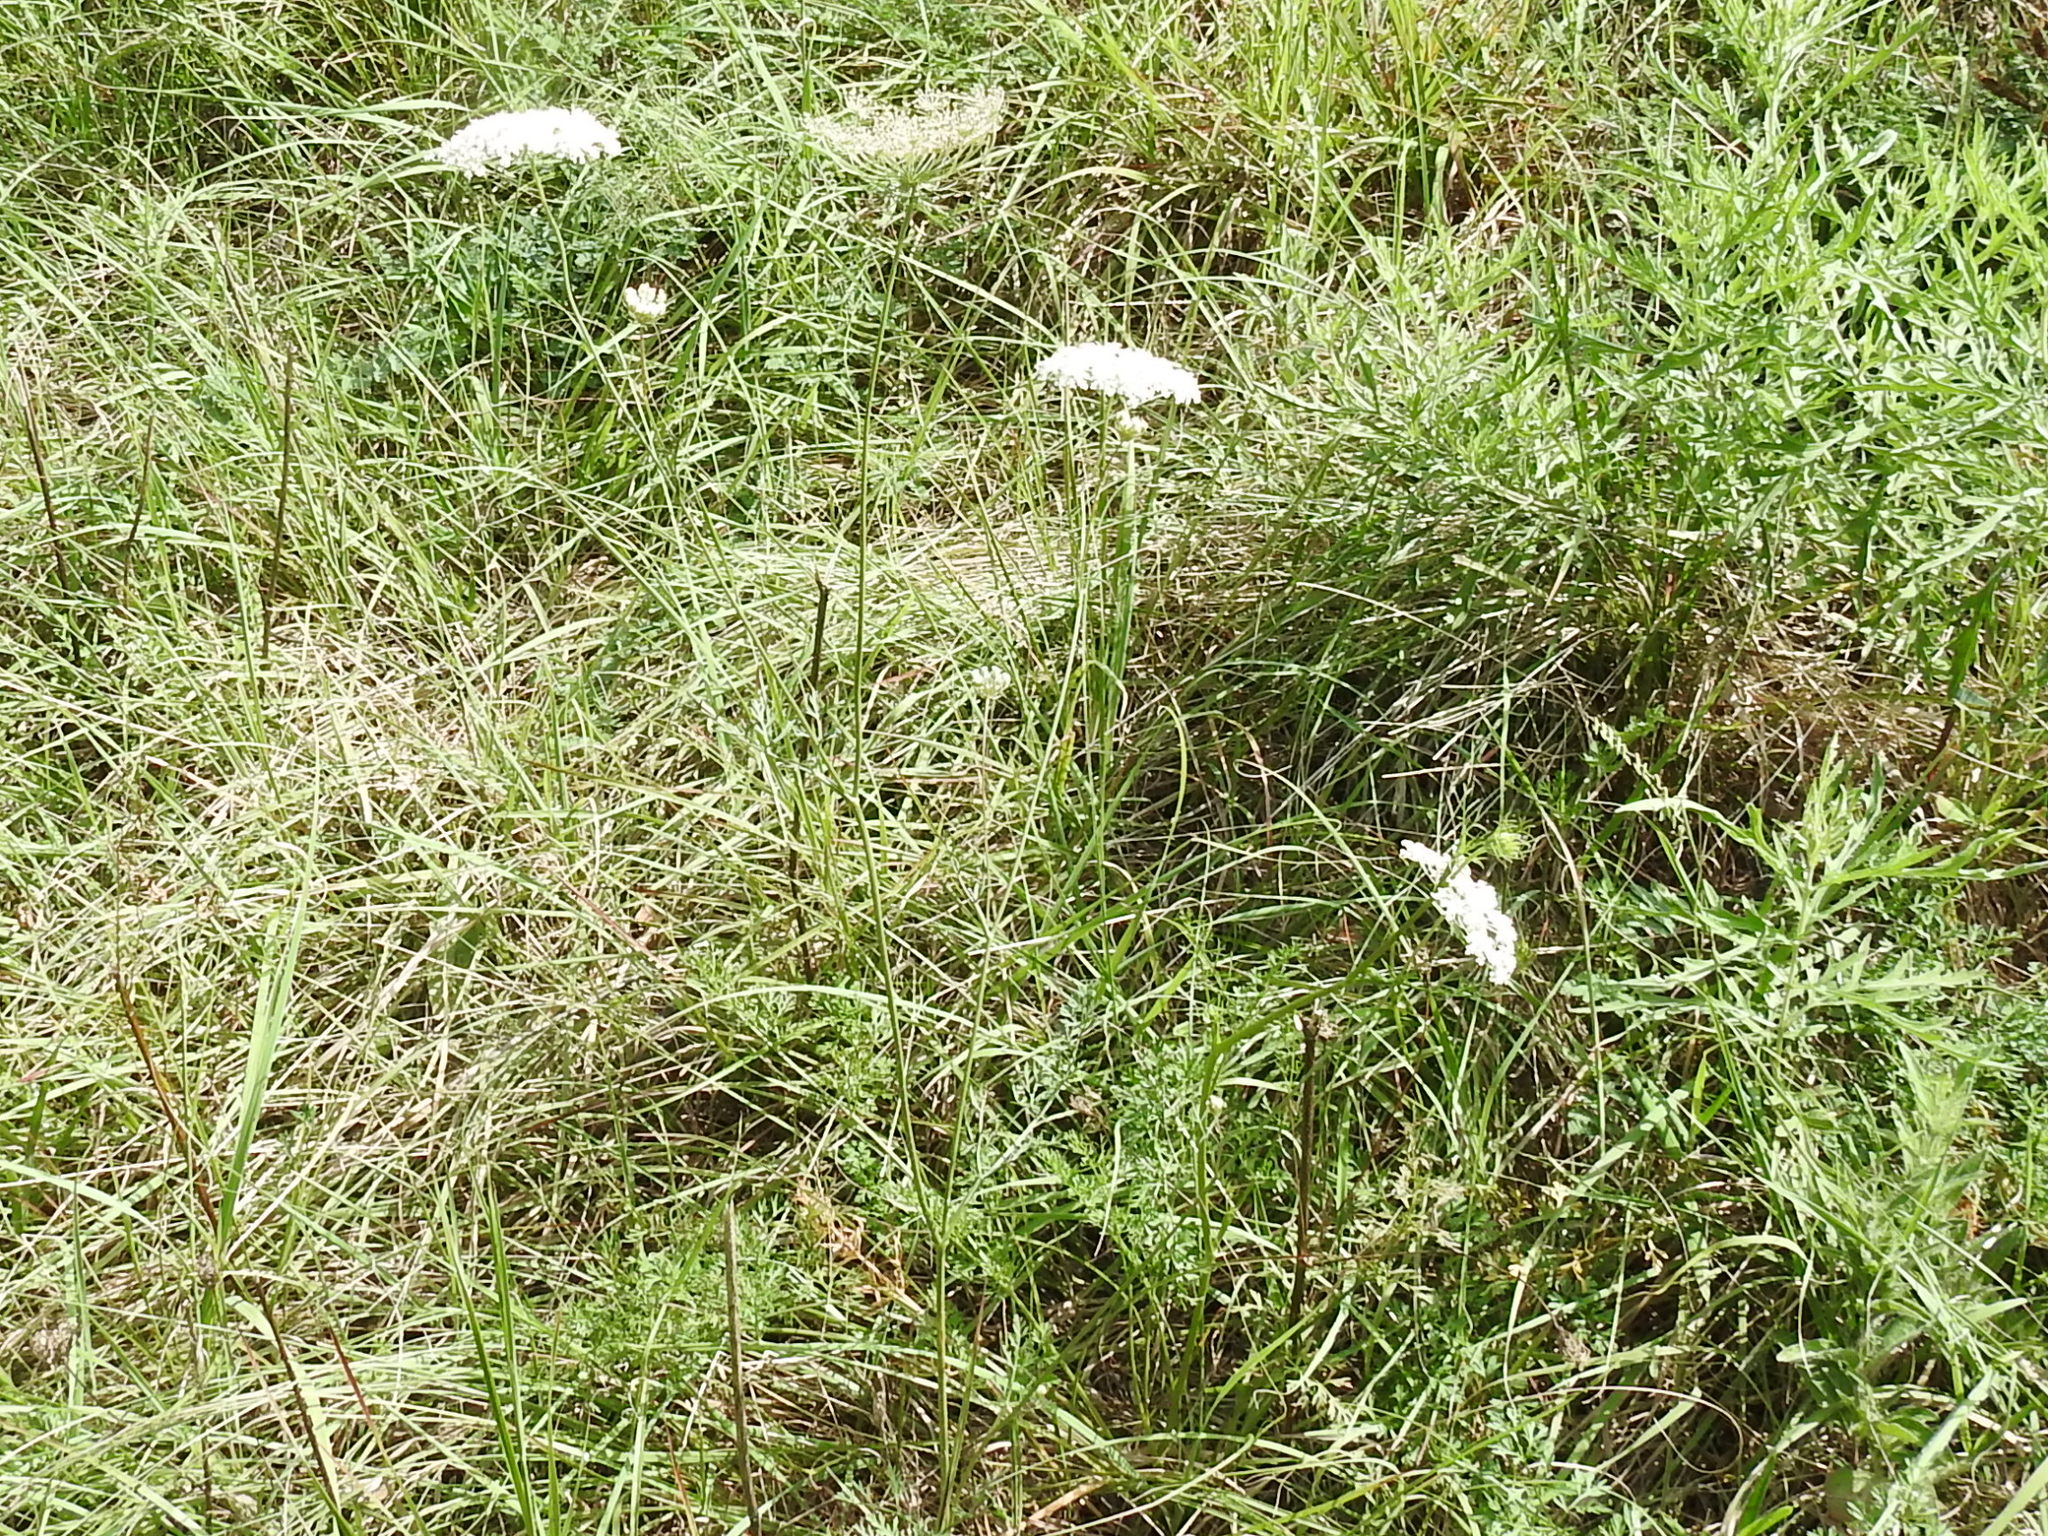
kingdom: Plantae
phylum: Tracheophyta
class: Magnoliopsida
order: Apiales
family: Apiaceae
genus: Daucus
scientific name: Daucus carota
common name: Wild carrot
